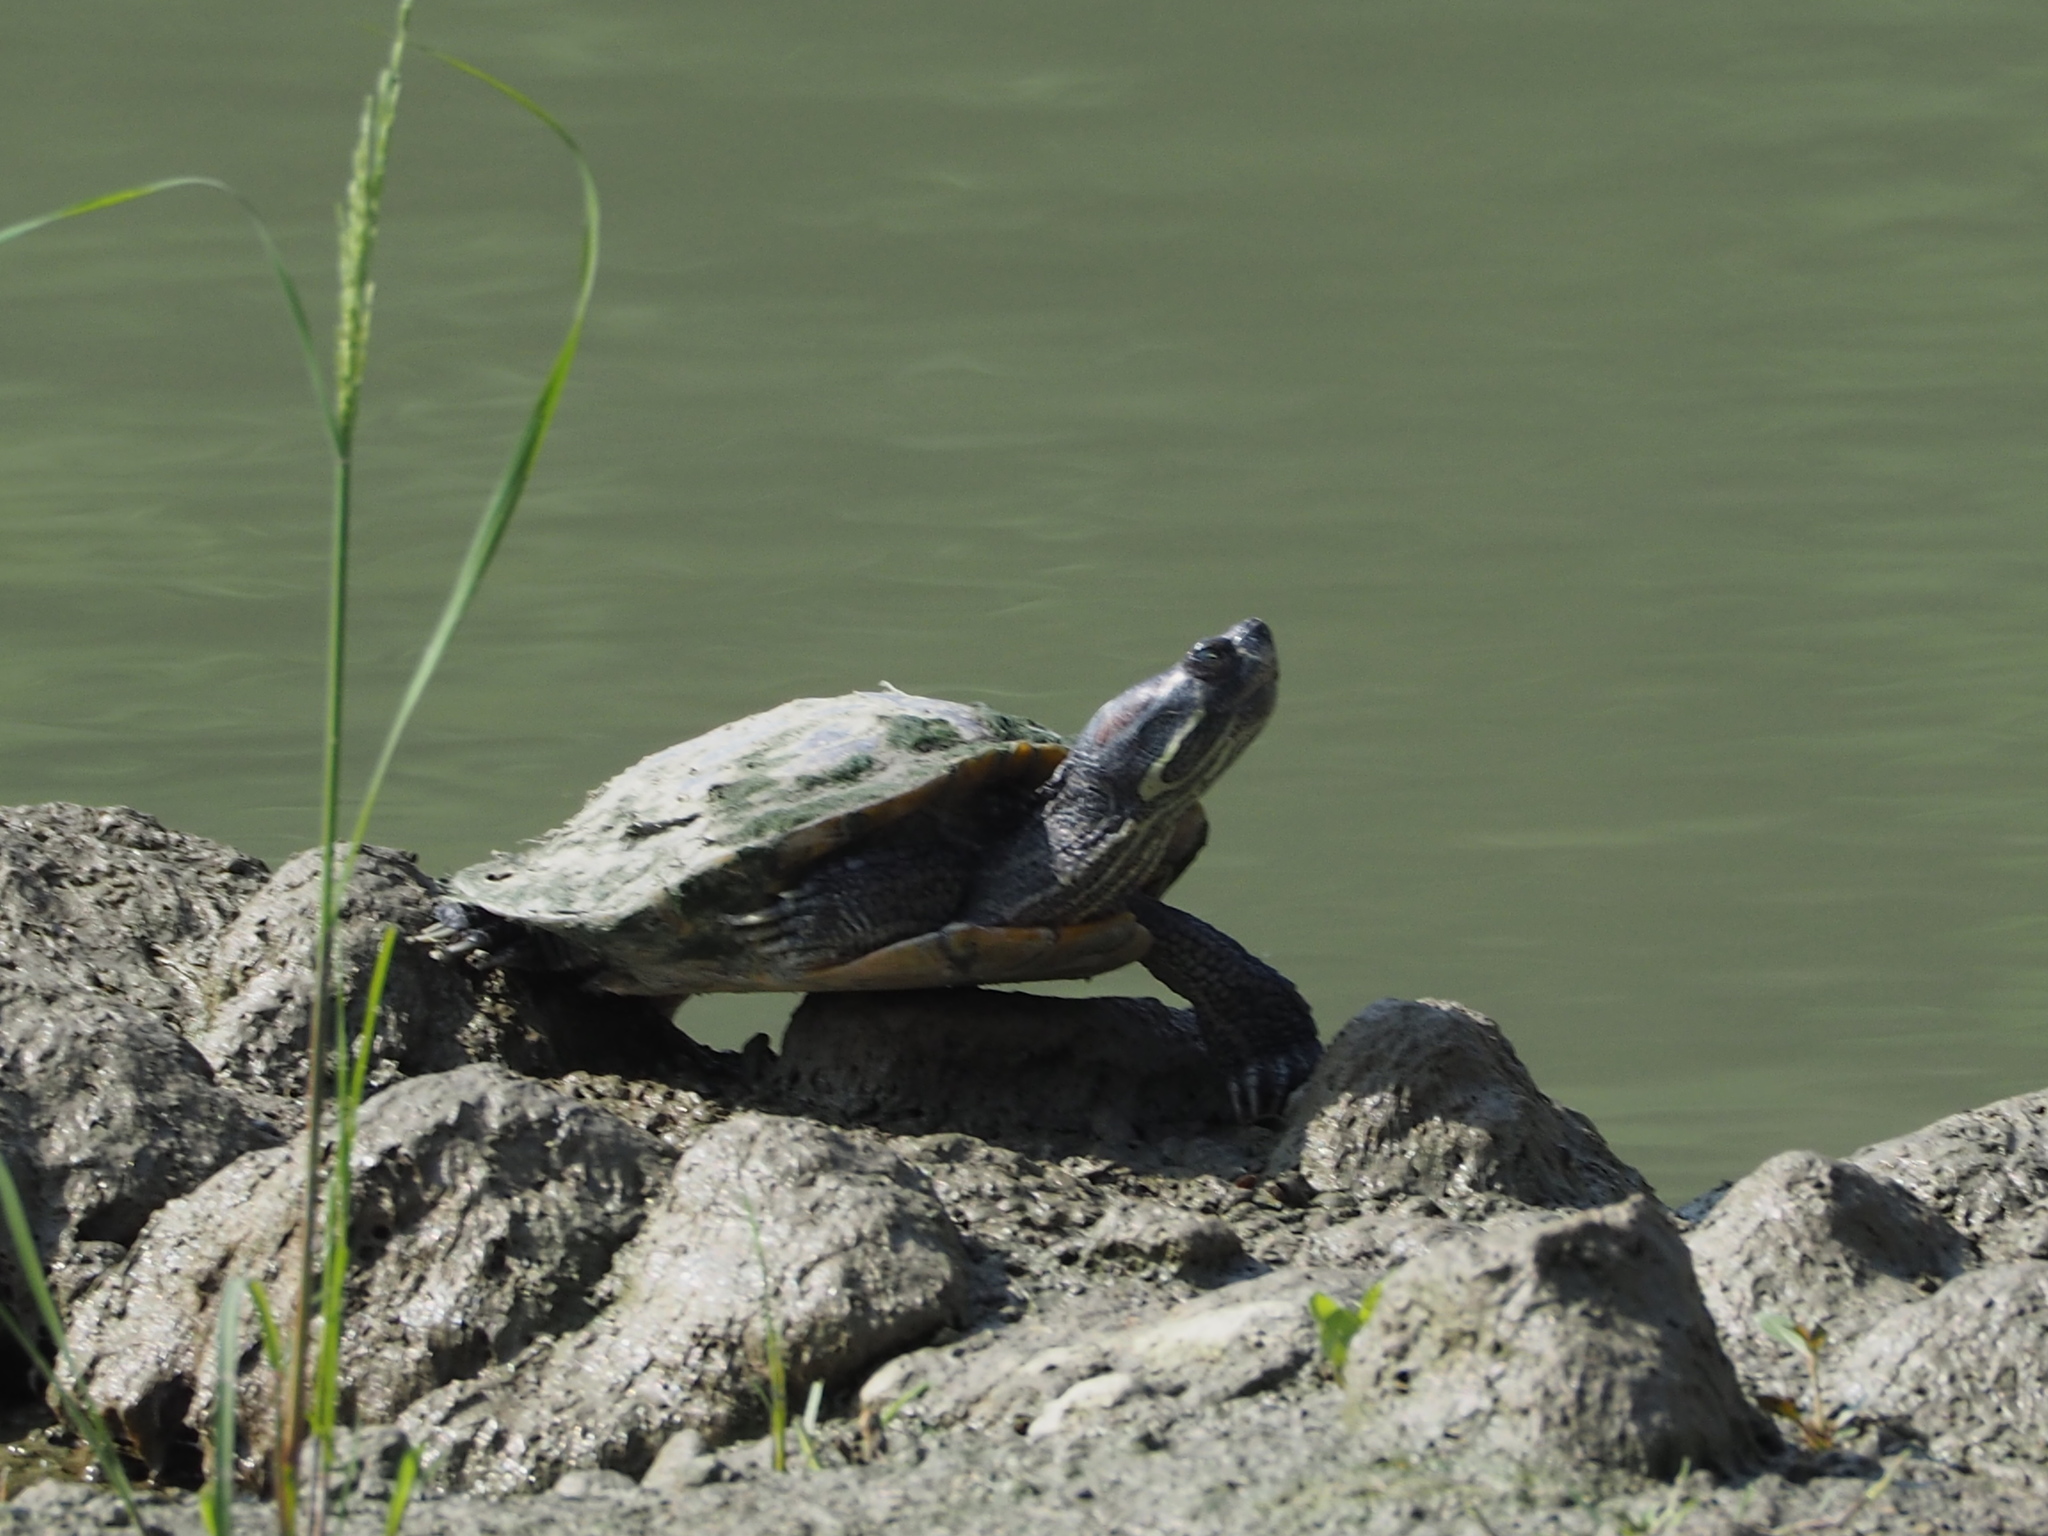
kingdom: Animalia
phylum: Chordata
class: Testudines
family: Emydidae
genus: Trachemys
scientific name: Trachemys scripta
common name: Slider
